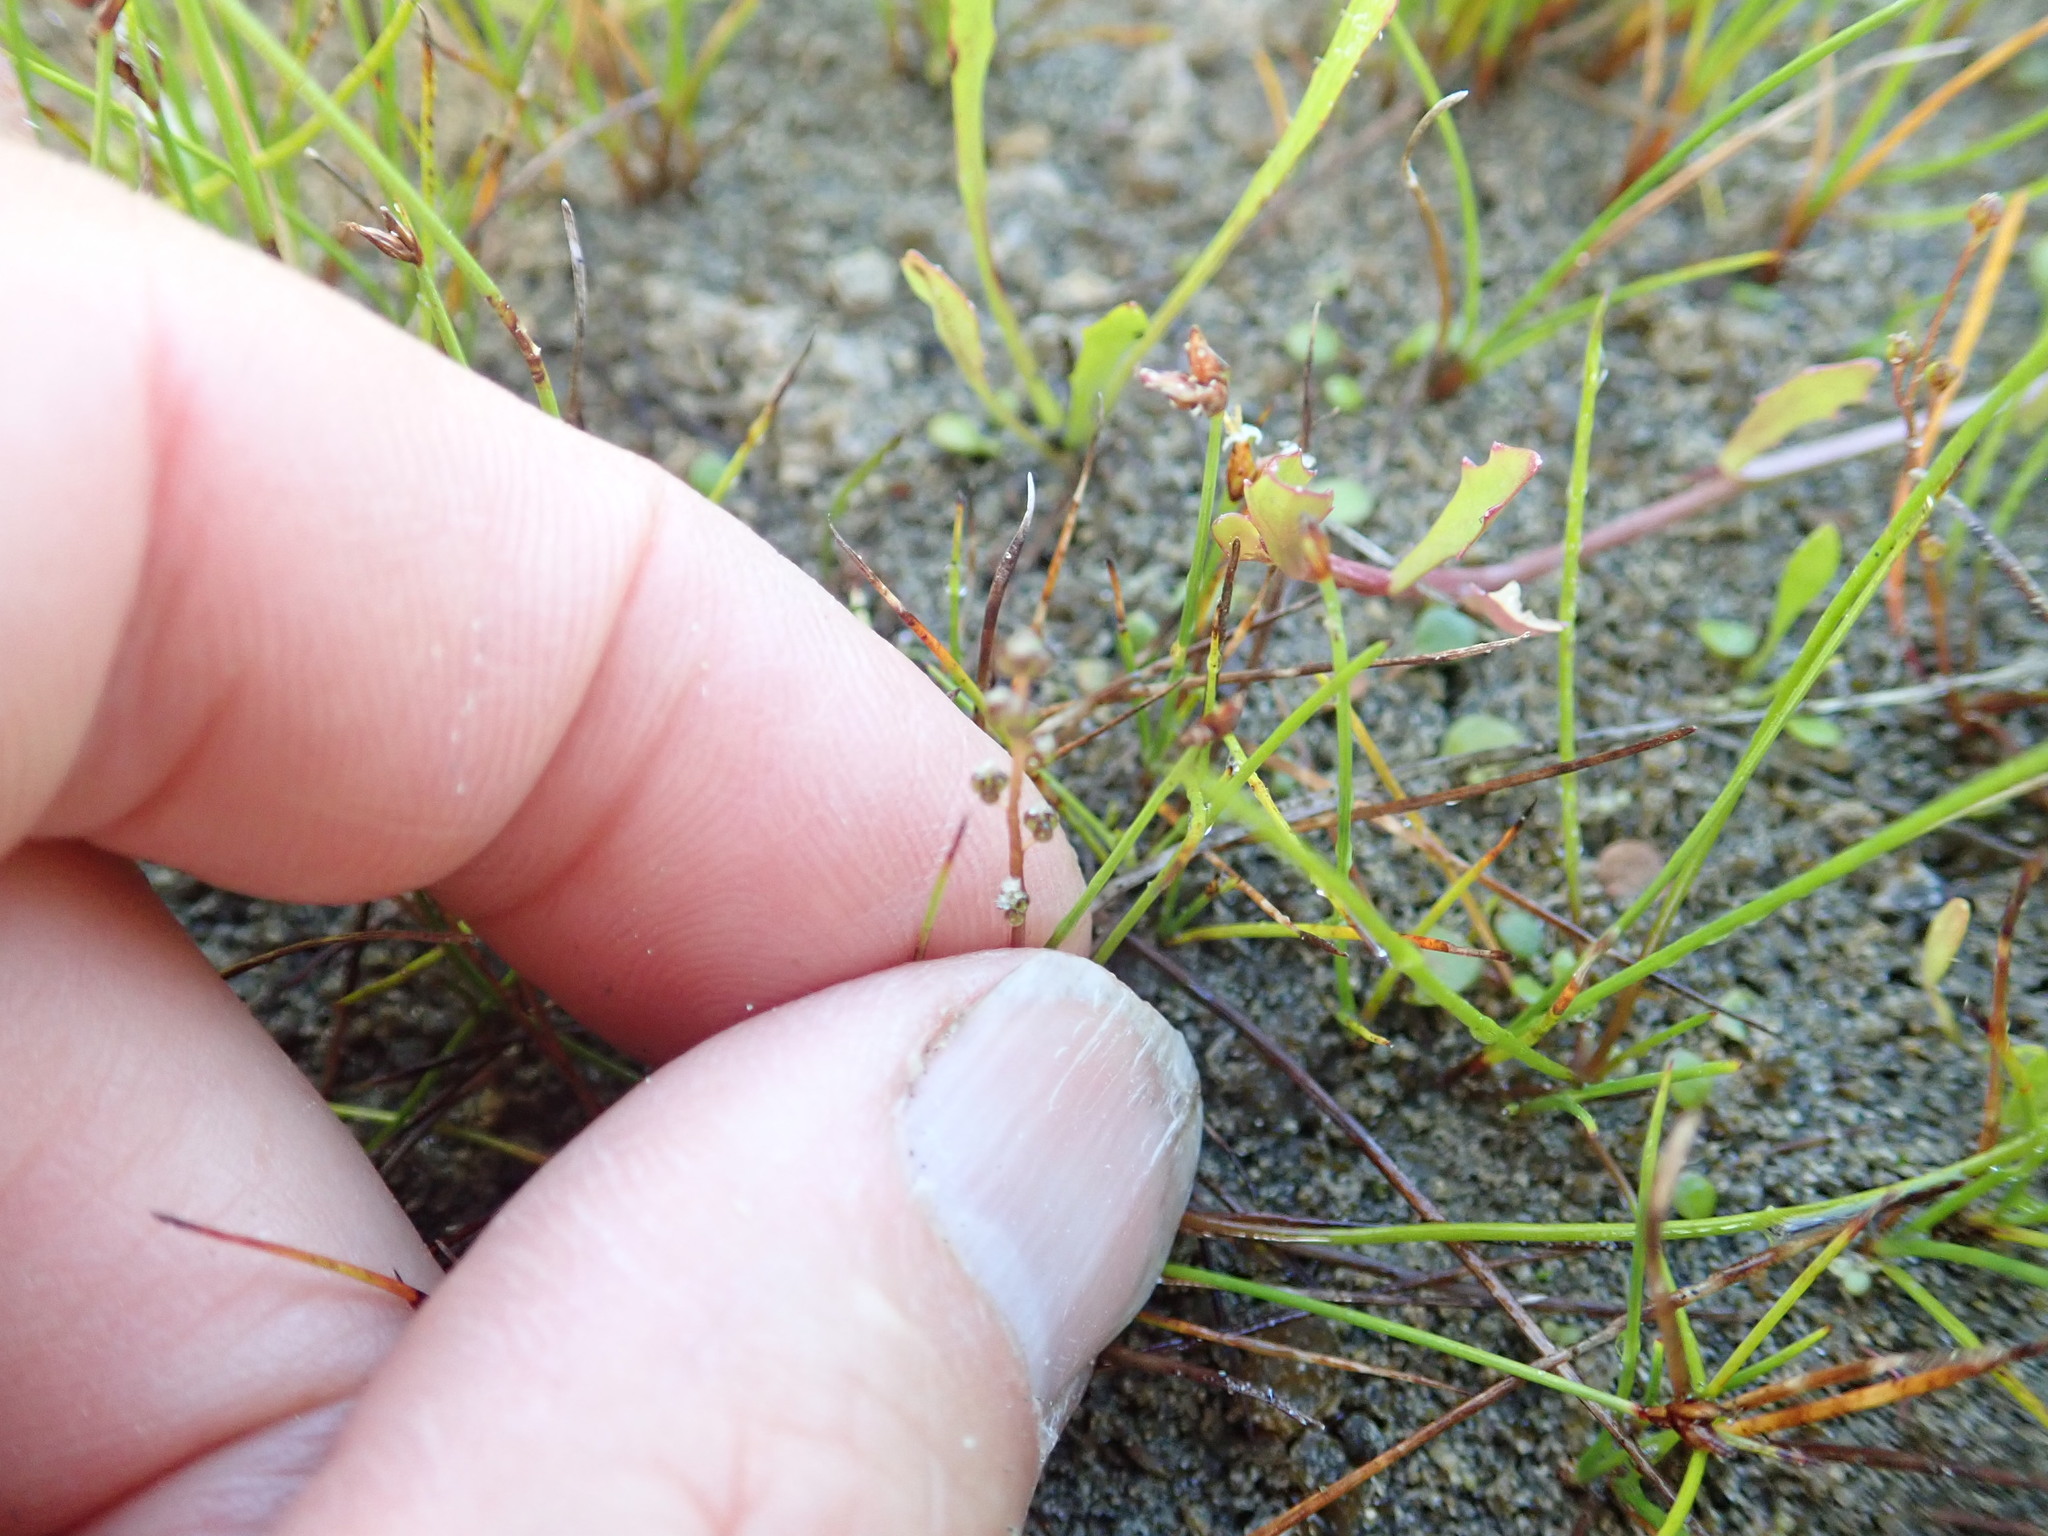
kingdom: Plantae
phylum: Tracheophyta
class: Liliopsida
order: Alismatales
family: Juncaginaceae
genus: Triglochin
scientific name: Triglochin striata
